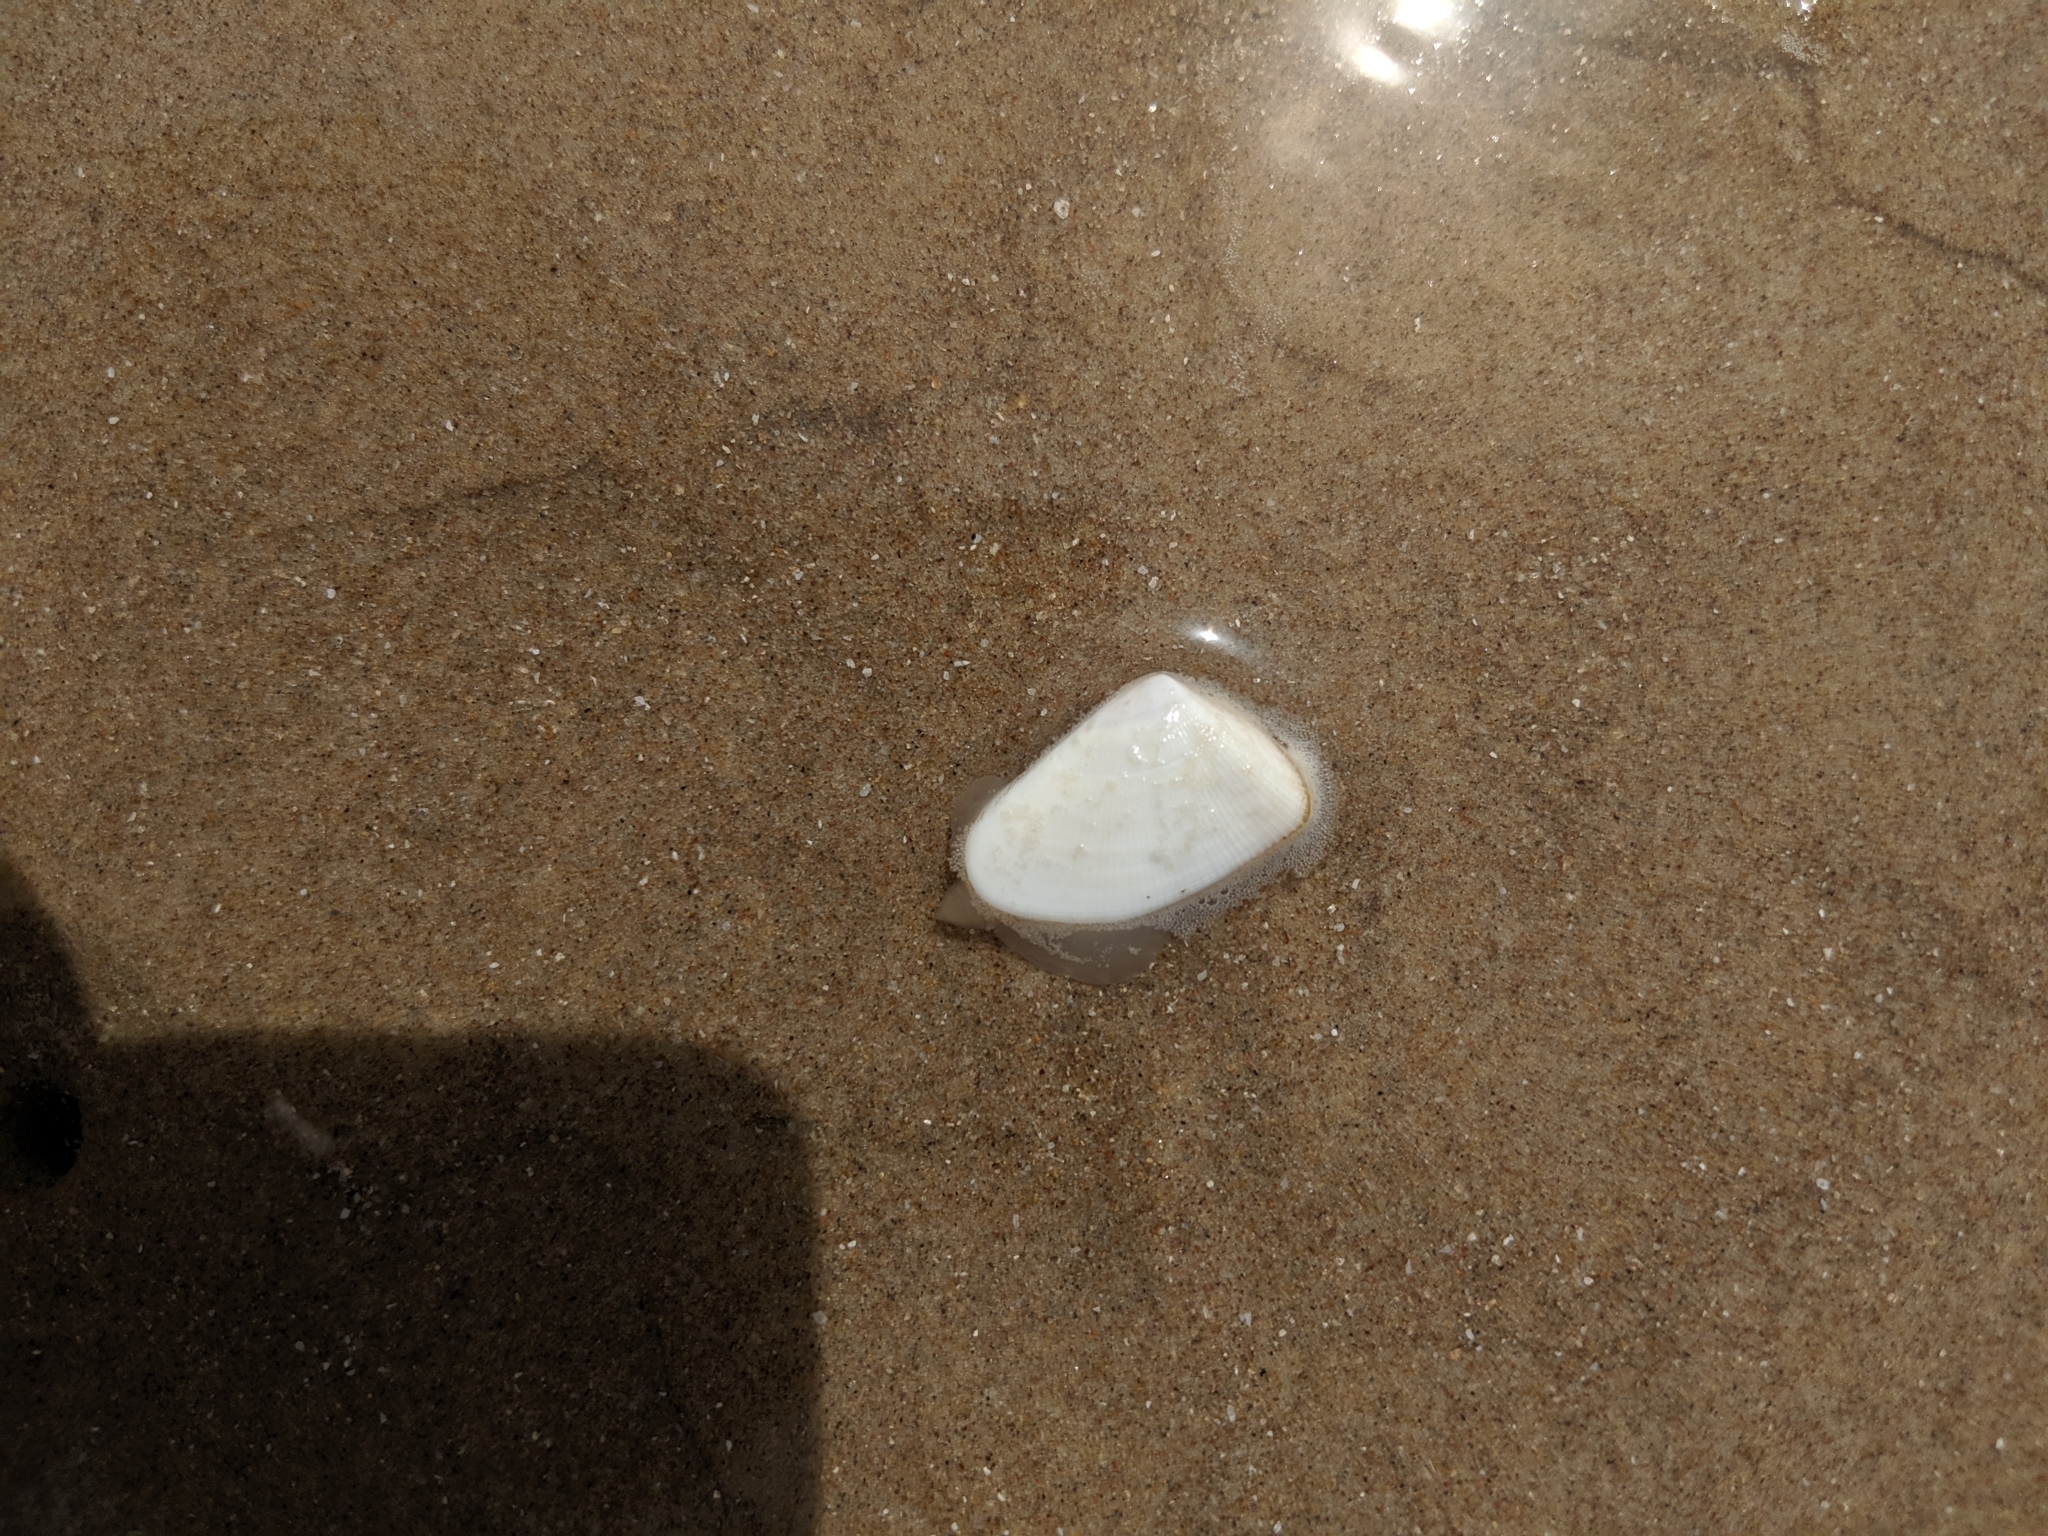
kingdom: Animalia
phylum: Mollusca
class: Bivalvia
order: Cardiida
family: Donacidae
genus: Donax
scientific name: Donax variabilis
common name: Butterfly shell
